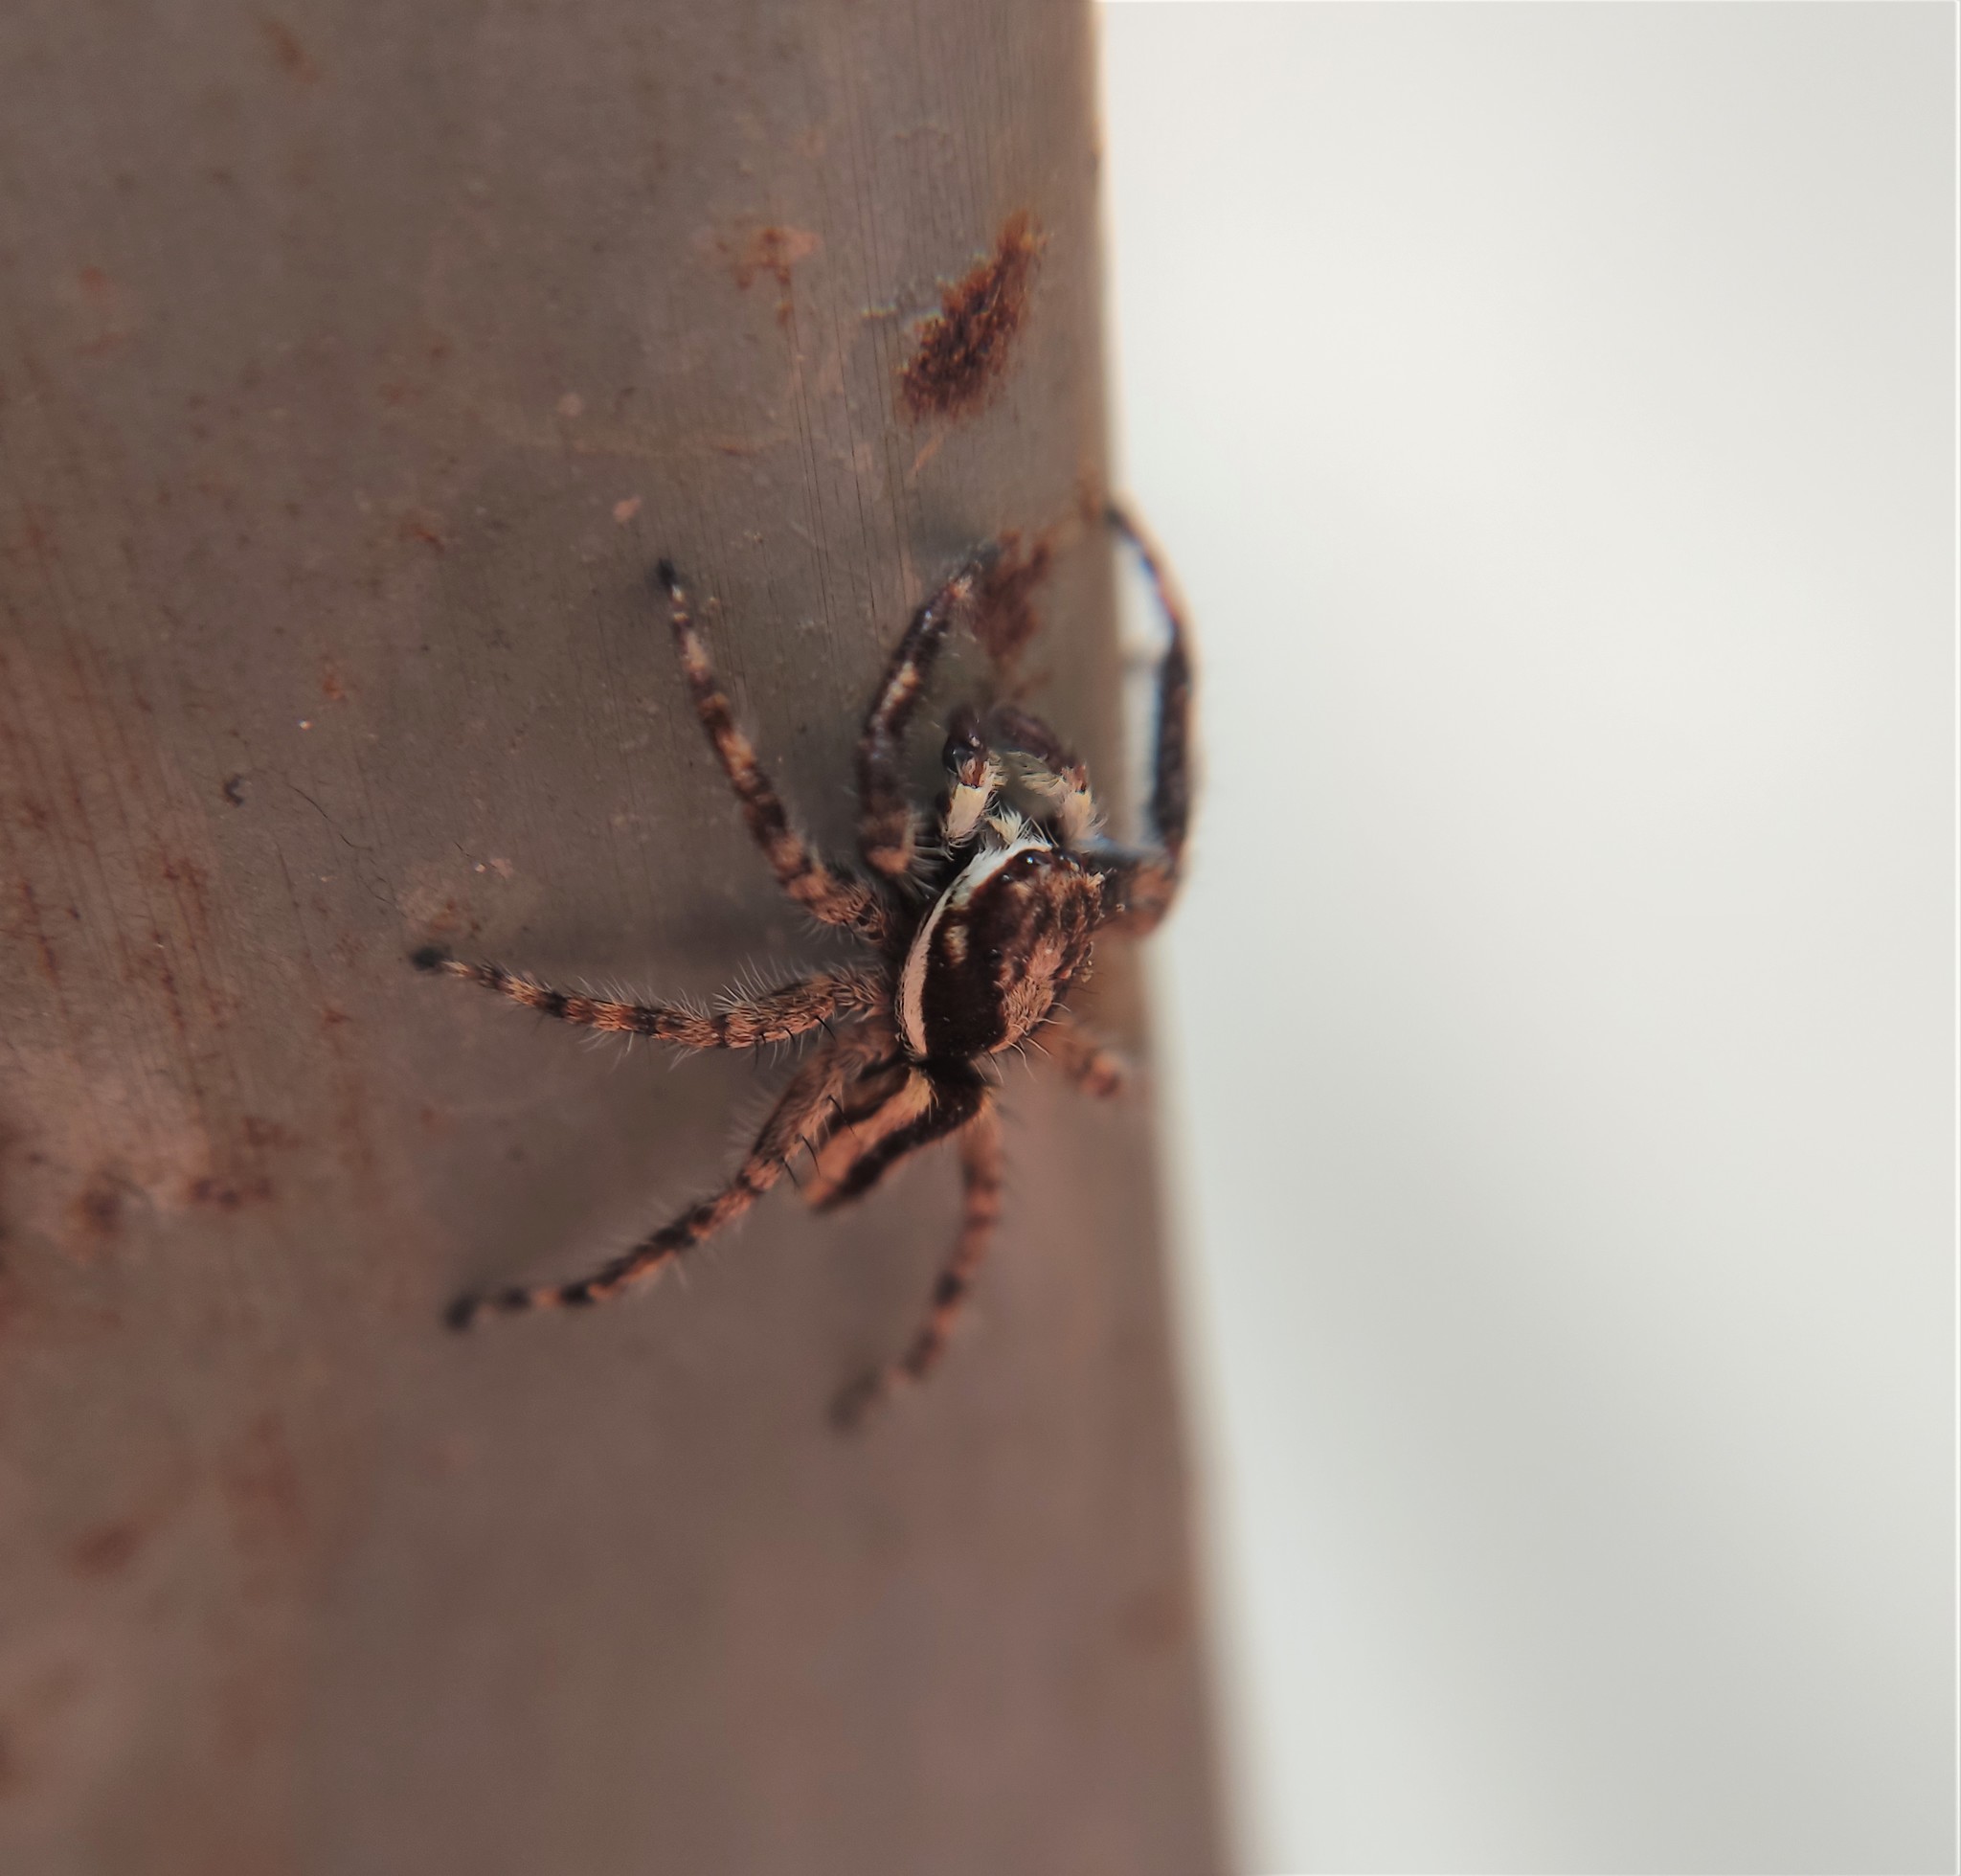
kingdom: Animalia
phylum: Arthropoda
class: Arachnida
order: Araneae
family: Salticidae
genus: Menemerus
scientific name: Menemerus bivittatus
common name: Gray wall jumper
